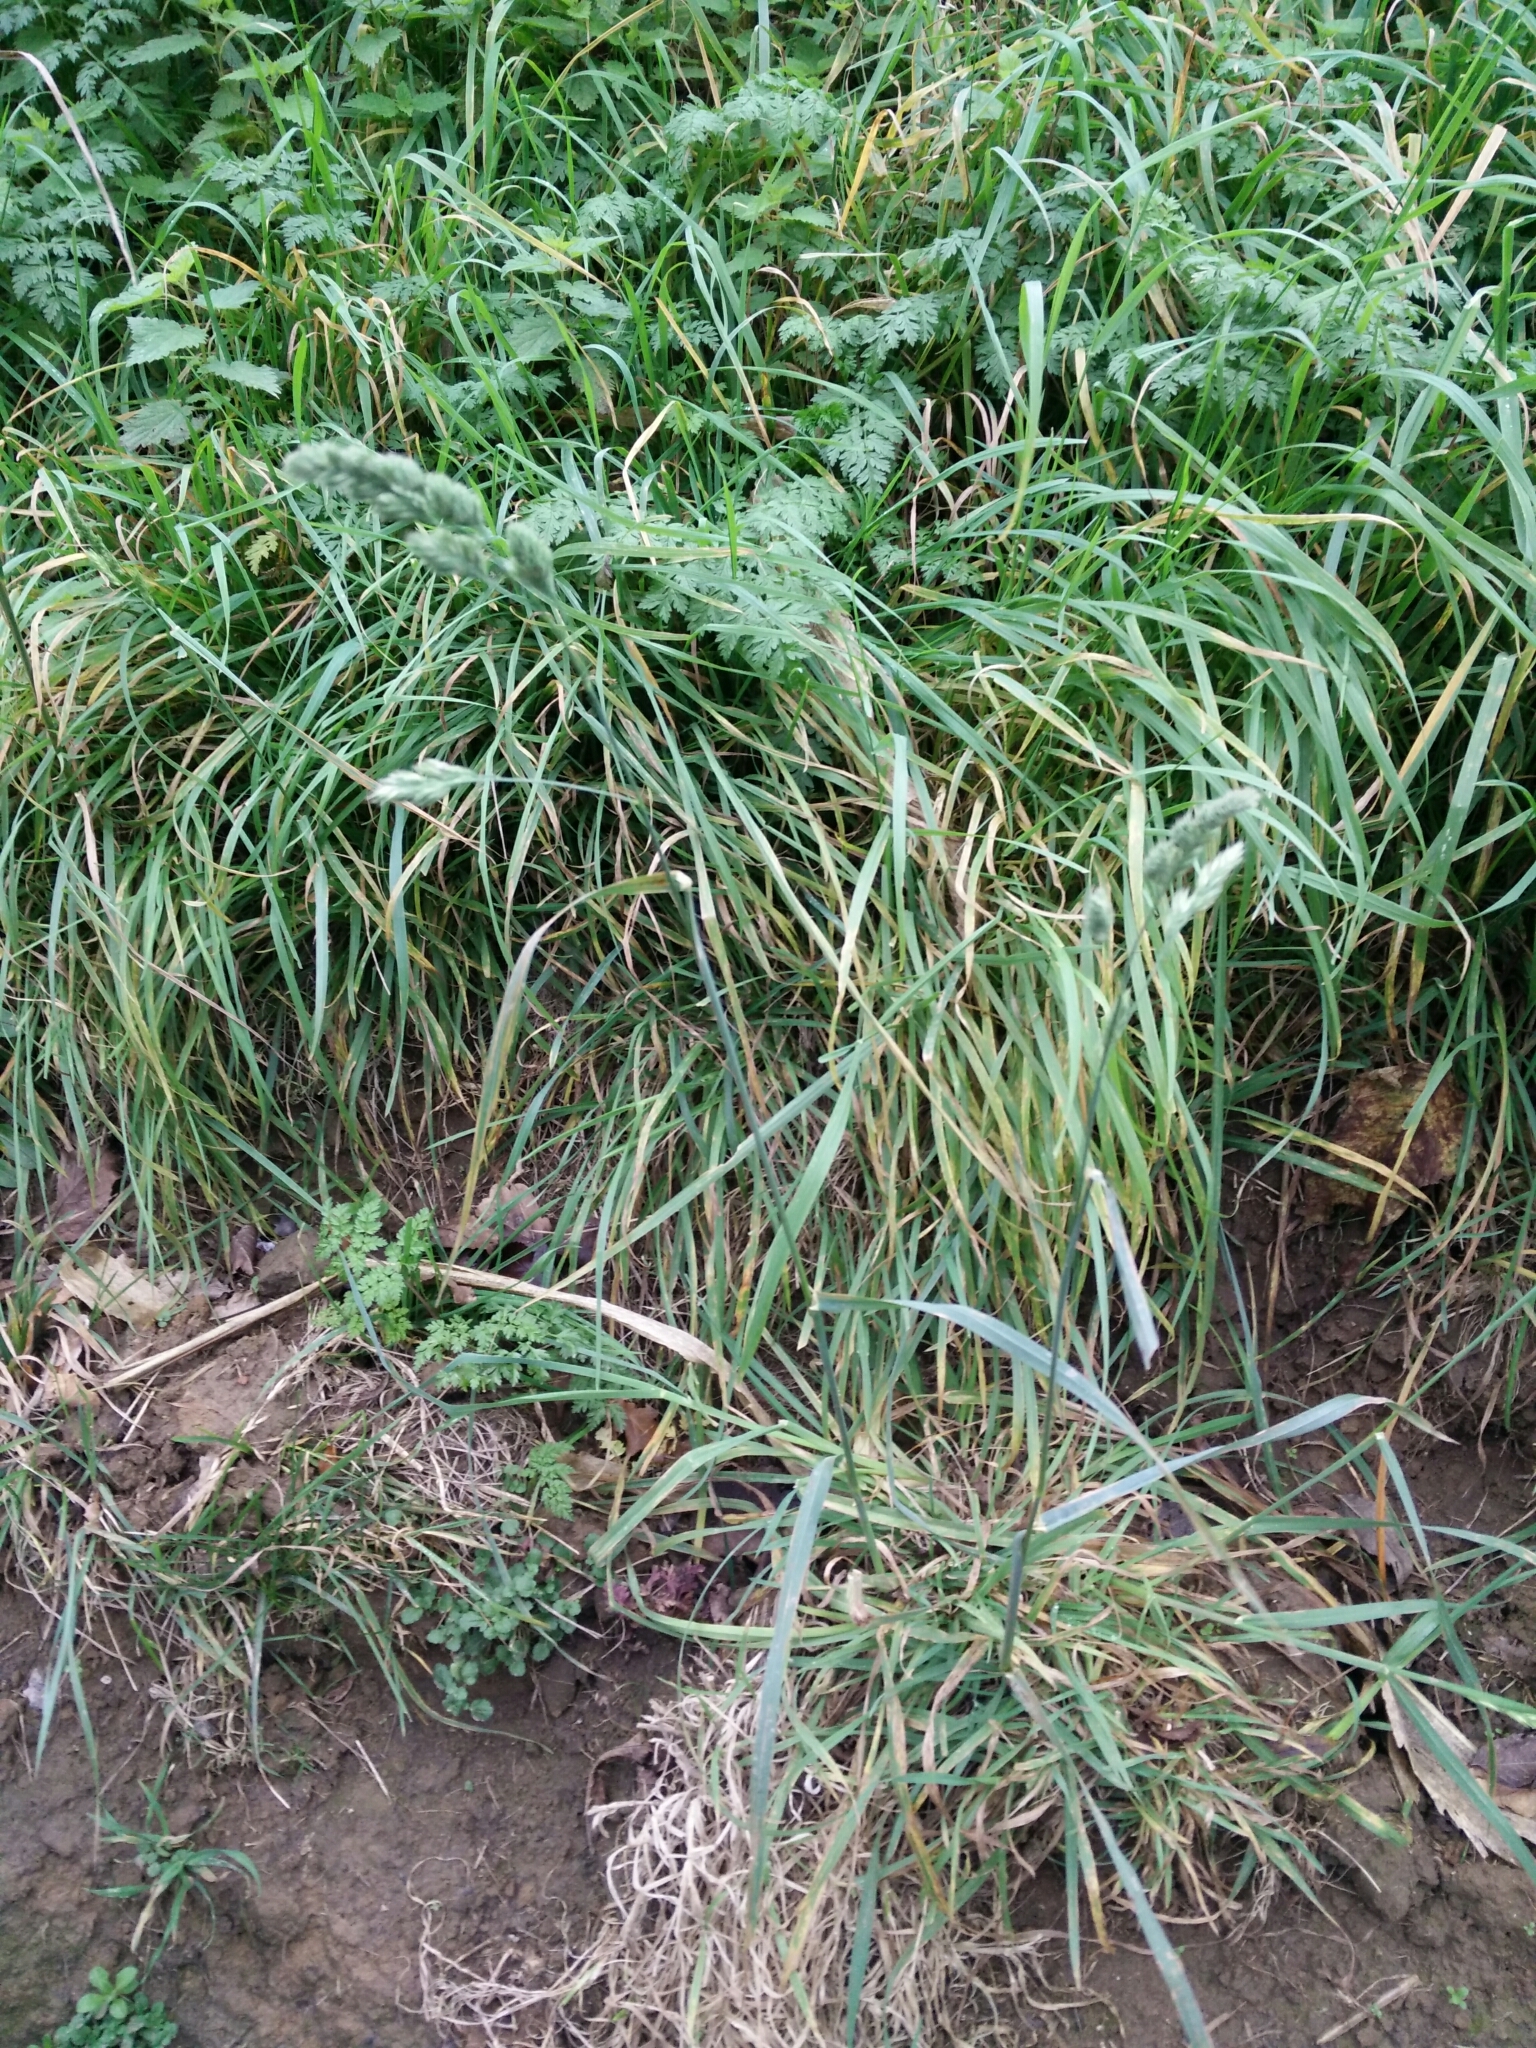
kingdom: Plantae
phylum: Tracheophyta
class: Liliopsida
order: Poales
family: Poaceae
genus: Dactylis
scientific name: Dactylis glomerata
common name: Orchardgrass
